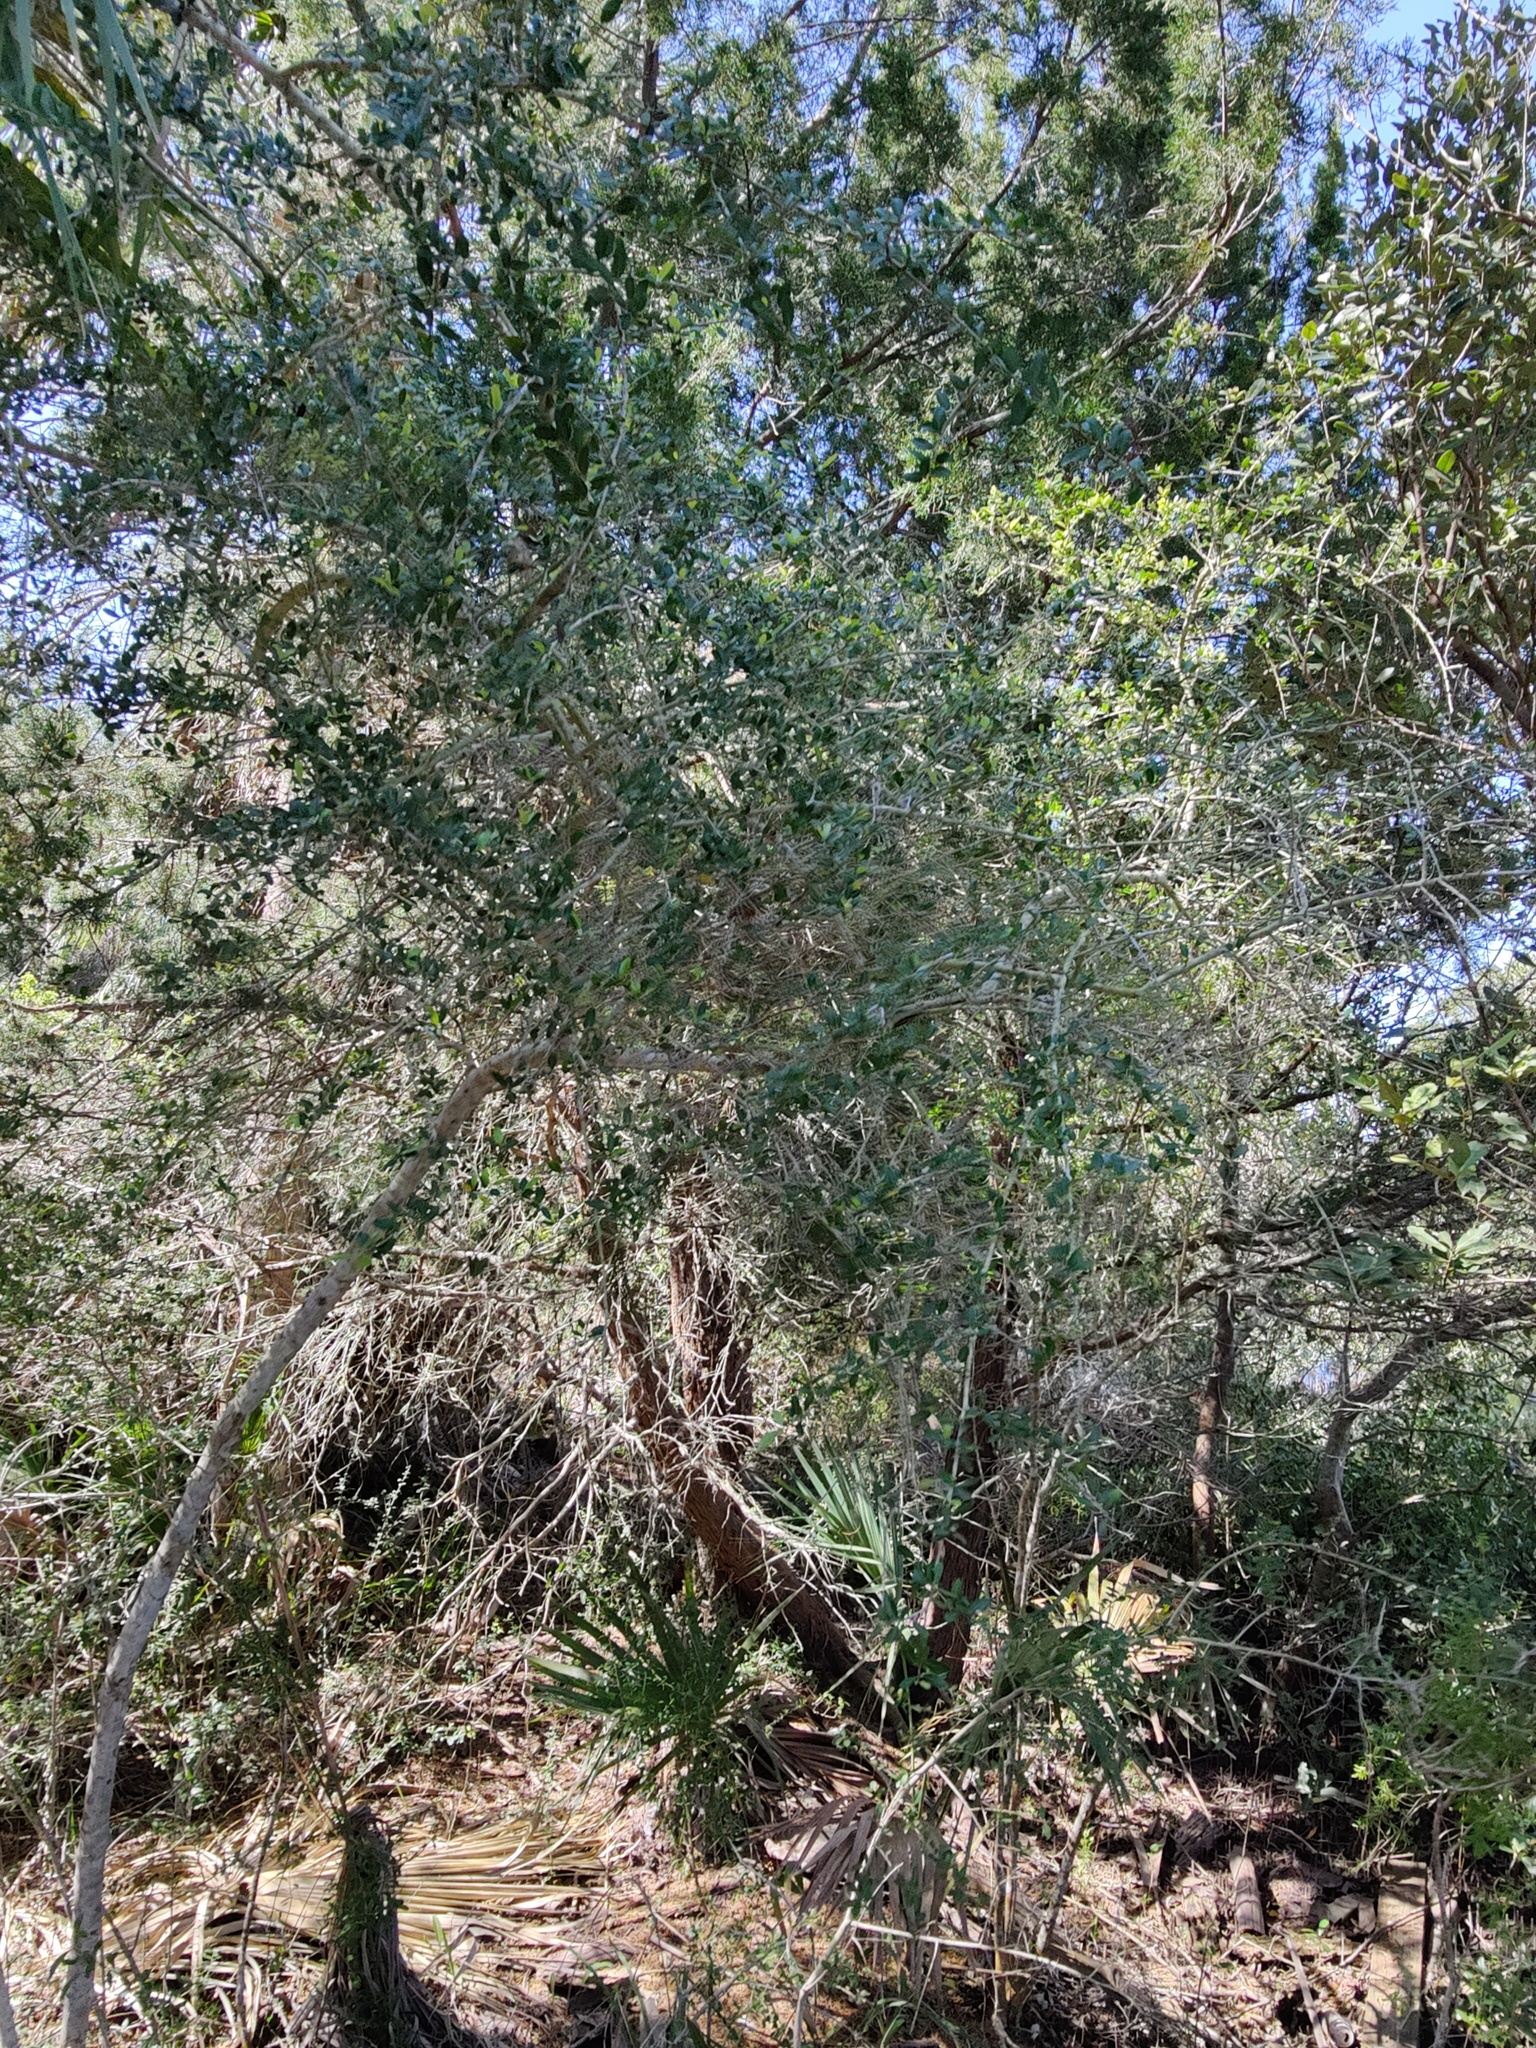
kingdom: Plantae
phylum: Tracheophyta
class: Magnoliopsida
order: Aquifoliales
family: Aquifoliaceae
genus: Ilex
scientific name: Ilex vomitoria
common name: Yaupon holly
